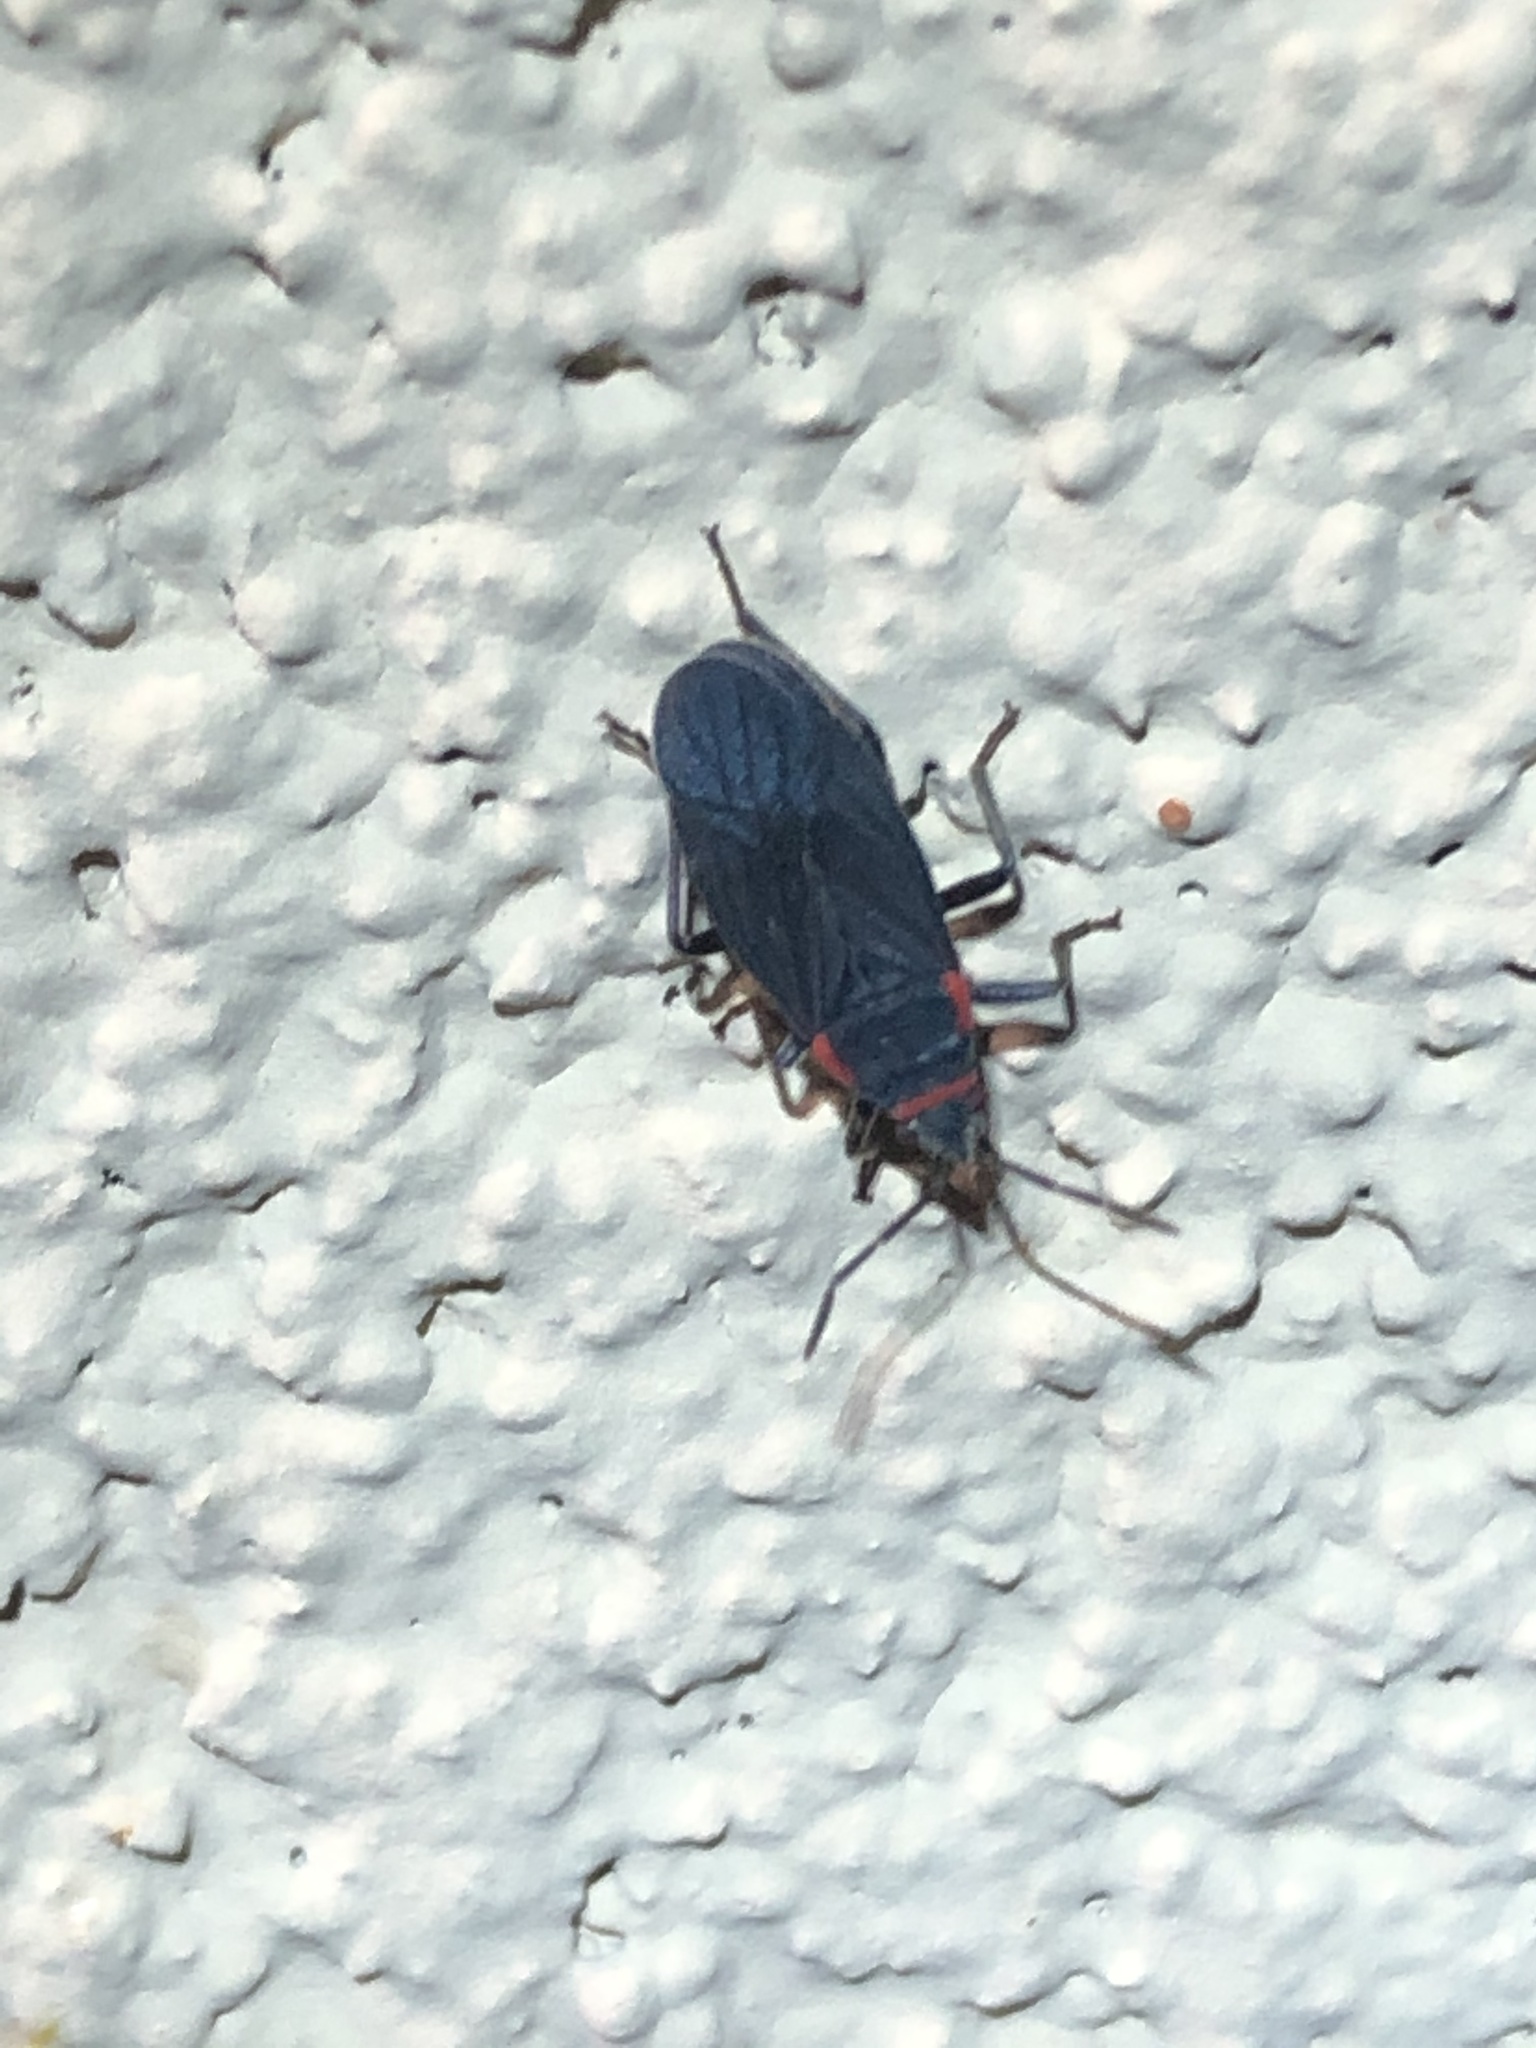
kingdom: Animalia
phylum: Arthropoda
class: Insecta
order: Hemiptera
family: Lygaeidae
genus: Melacoryphus
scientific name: Melacoryphus rubicollis
